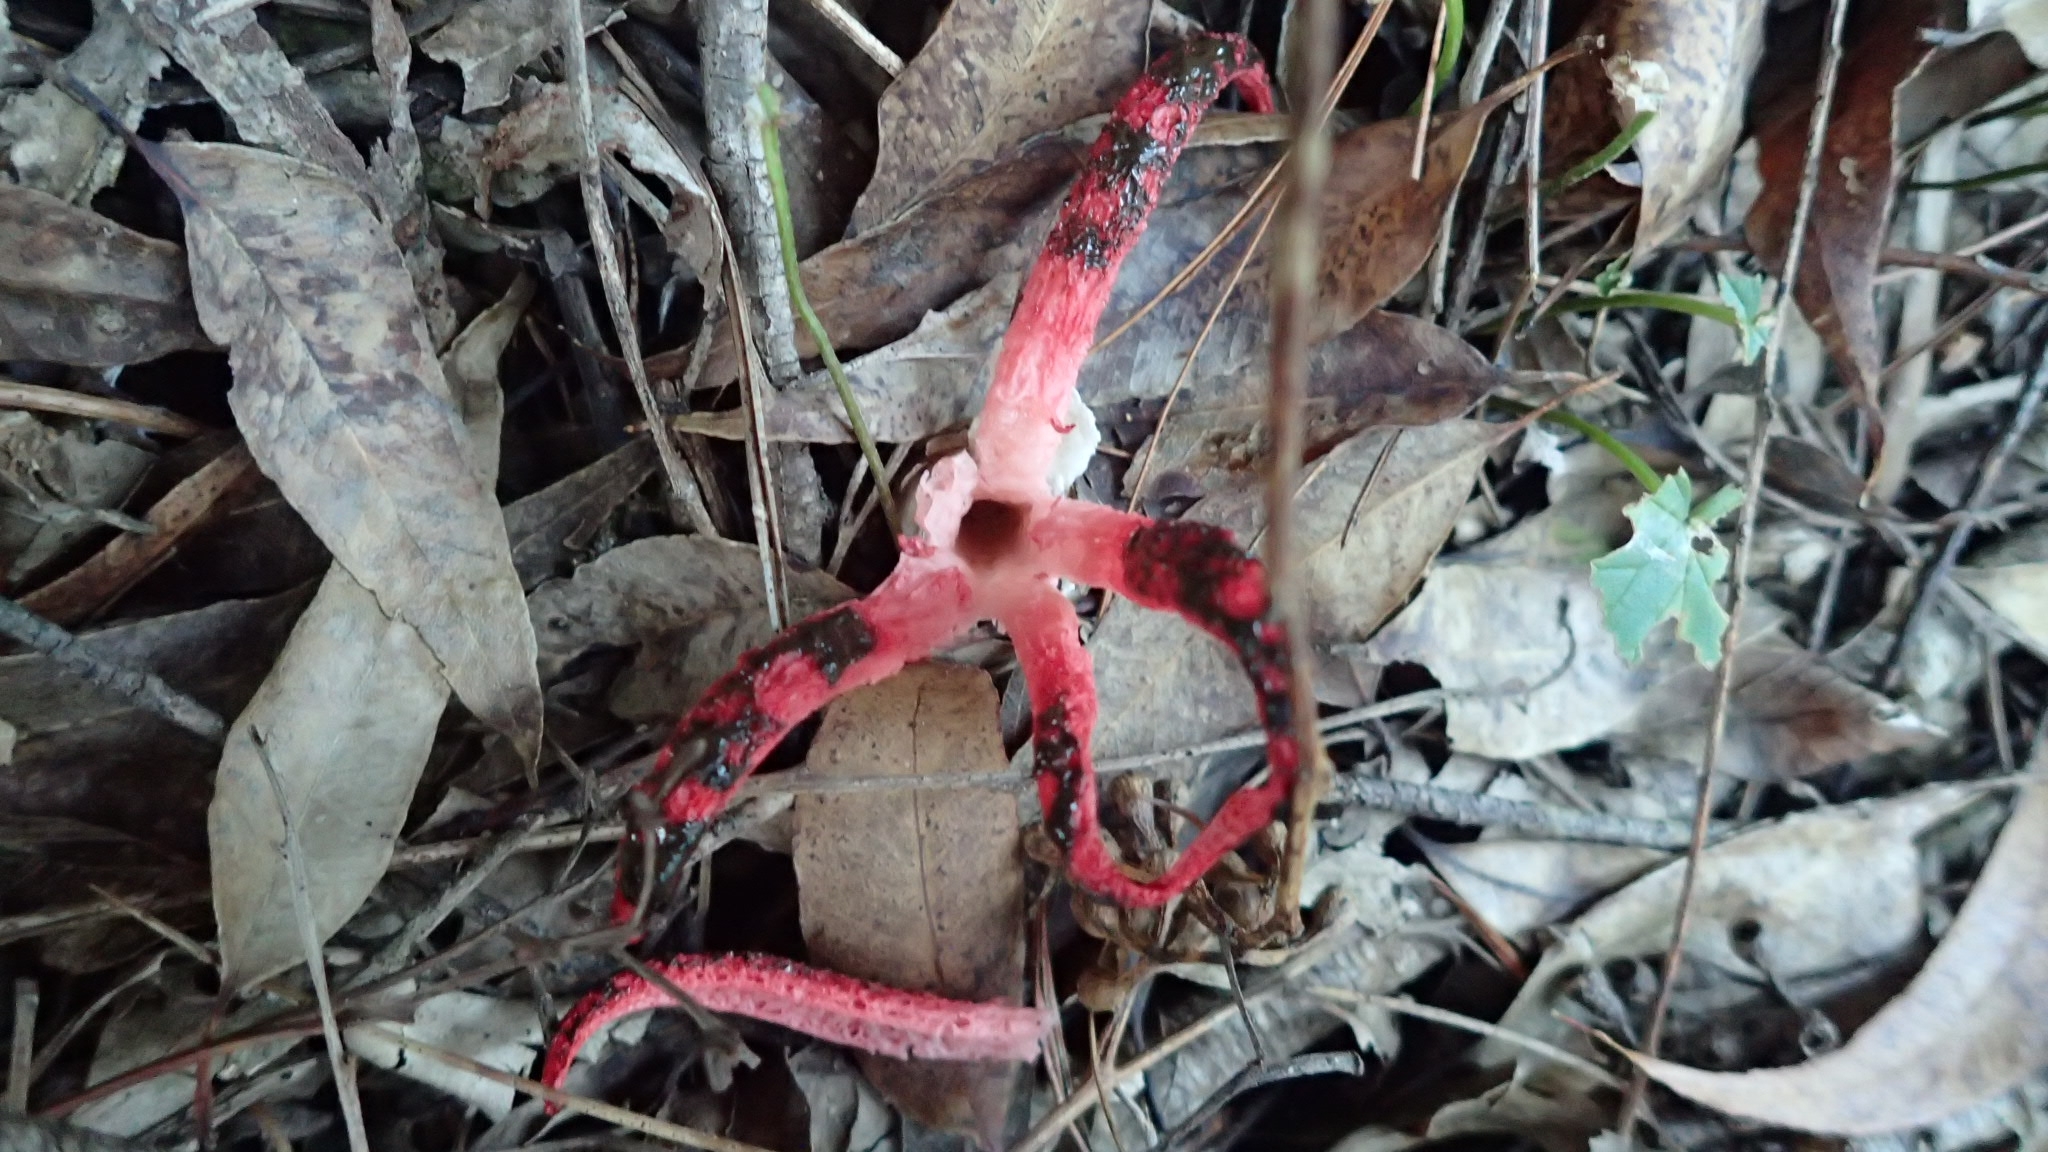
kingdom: Fungi
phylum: Basidiomycota
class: Agaricomycetes
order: Phallales
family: Phallaceae
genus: Clathrus
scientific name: Clathrus archeri
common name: Devil's fingers
